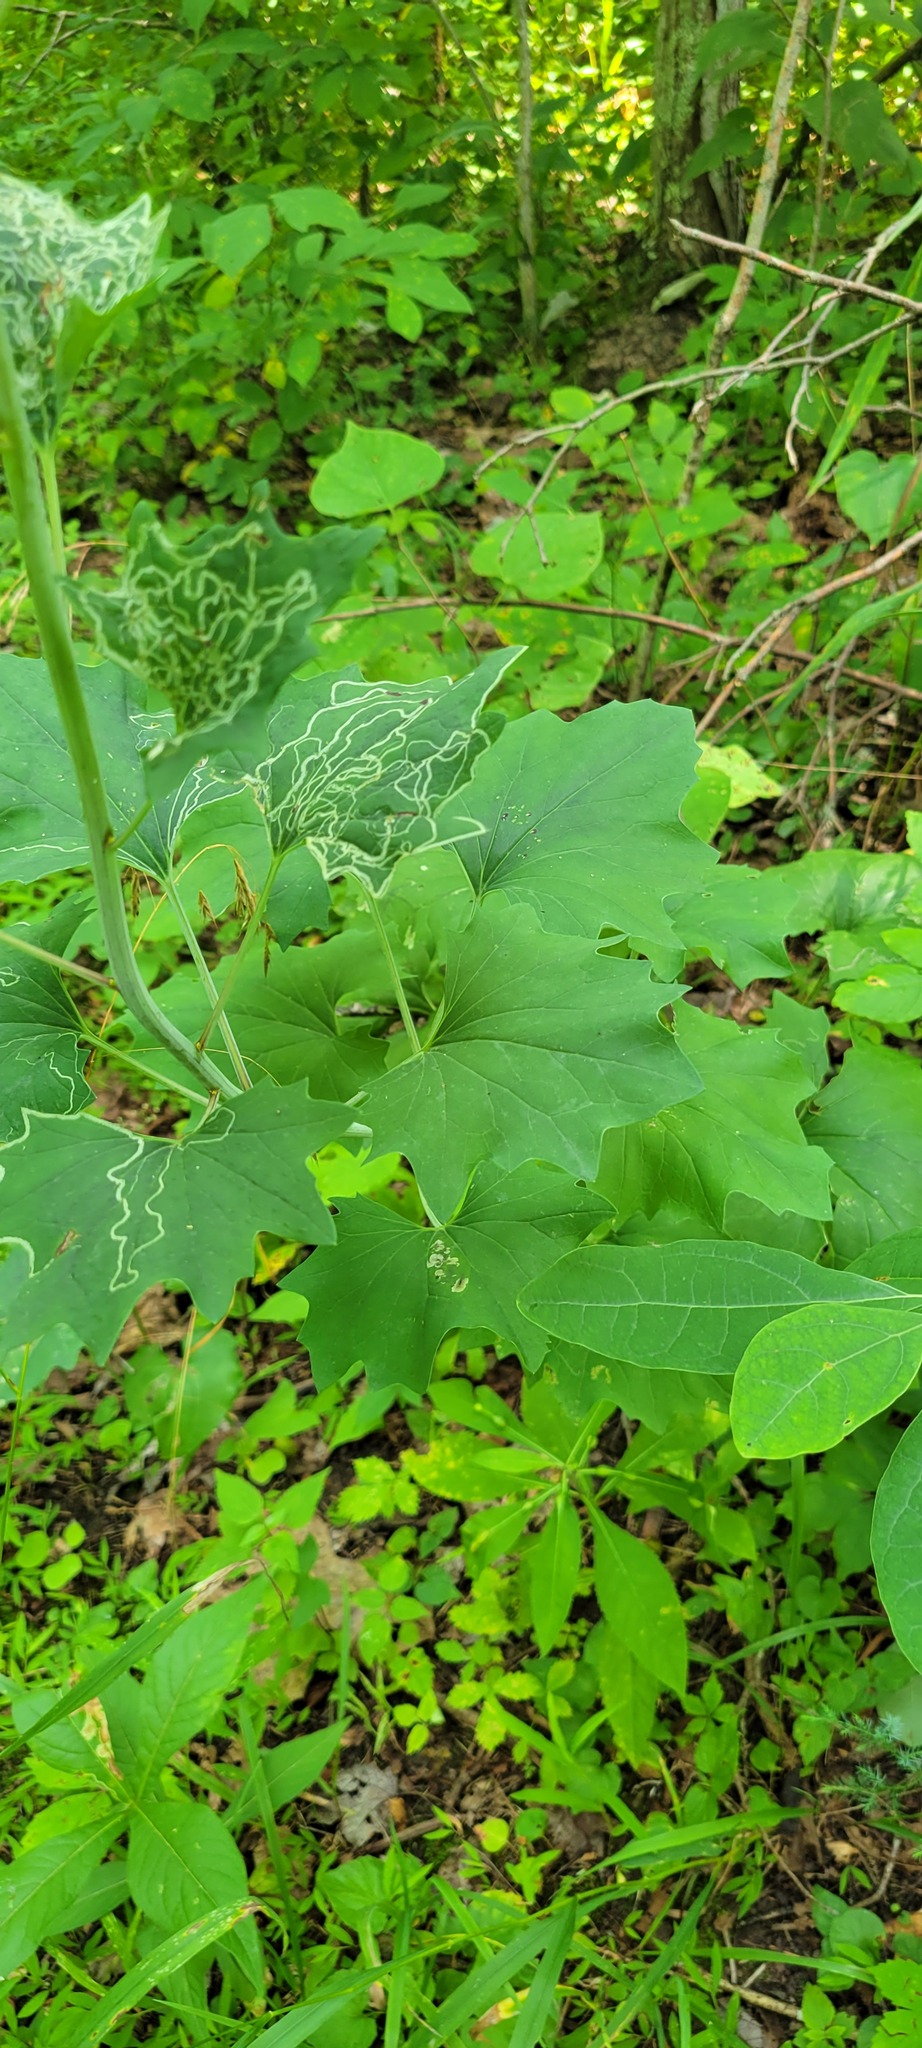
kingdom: Plantae
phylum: Tracheophyta
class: Magnoliopsida
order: Asterales
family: Asteraceae
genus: Arnoglossum
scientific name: Arnoglossum atriplicifolium
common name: Pale indian-plantain
